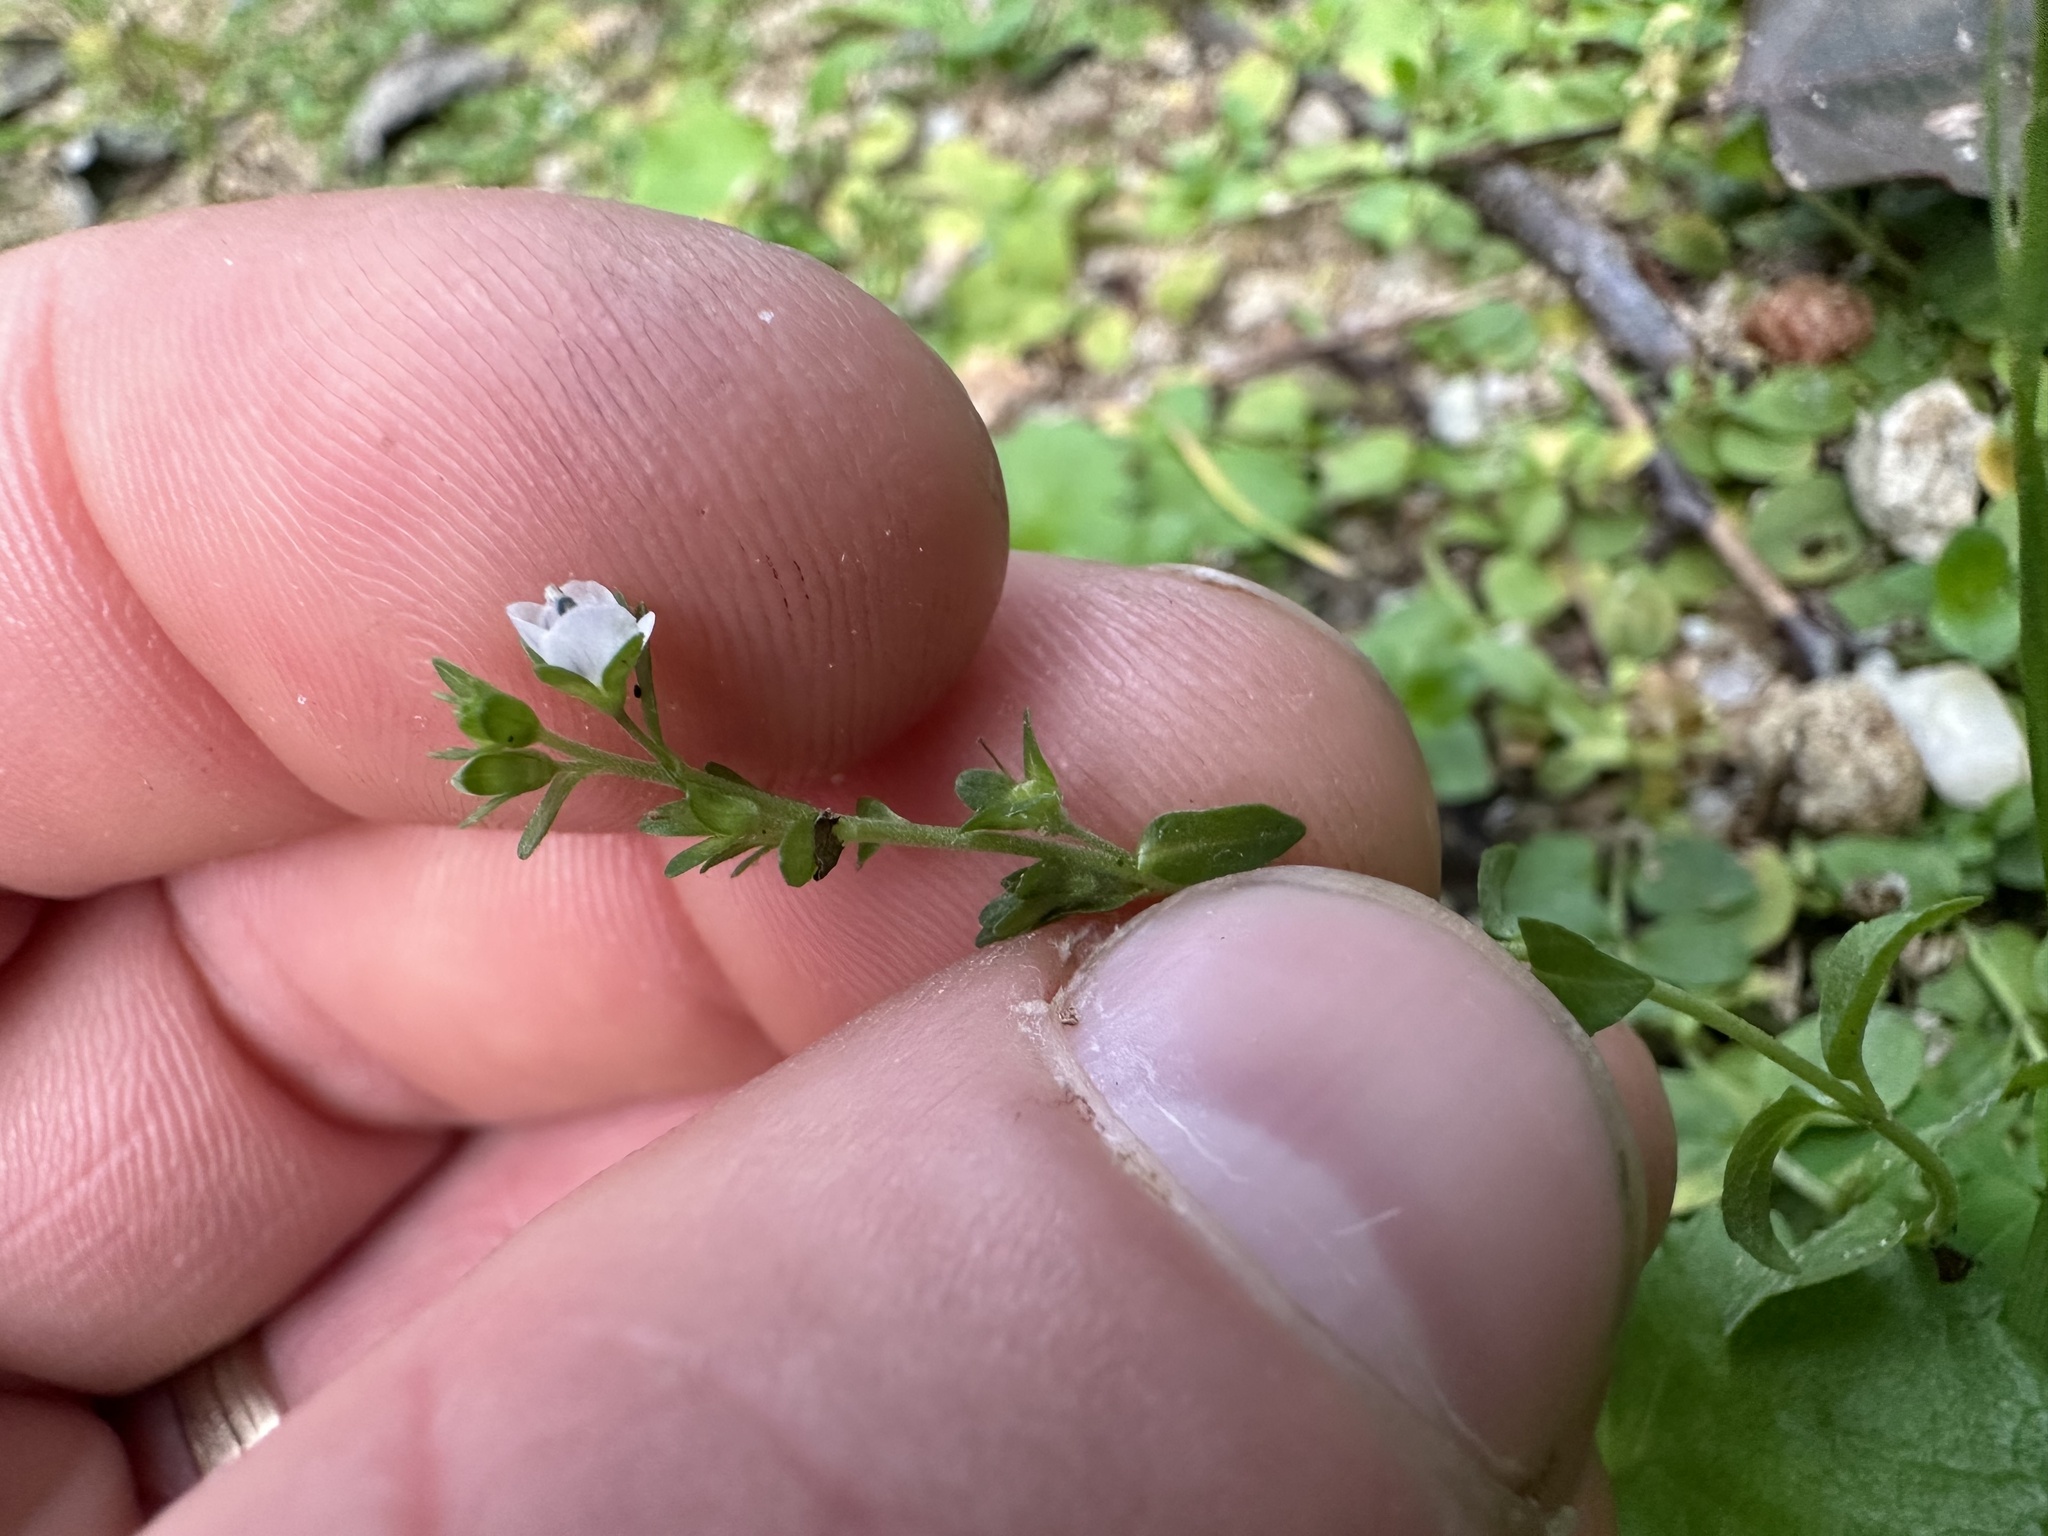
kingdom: Plantae
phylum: Tracheophyta
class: Magnoliopsida
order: Lamiales
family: Plantaginaceae
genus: Veronica
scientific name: Veronica serpyllifolia
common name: Thyme-leaved speedwell
